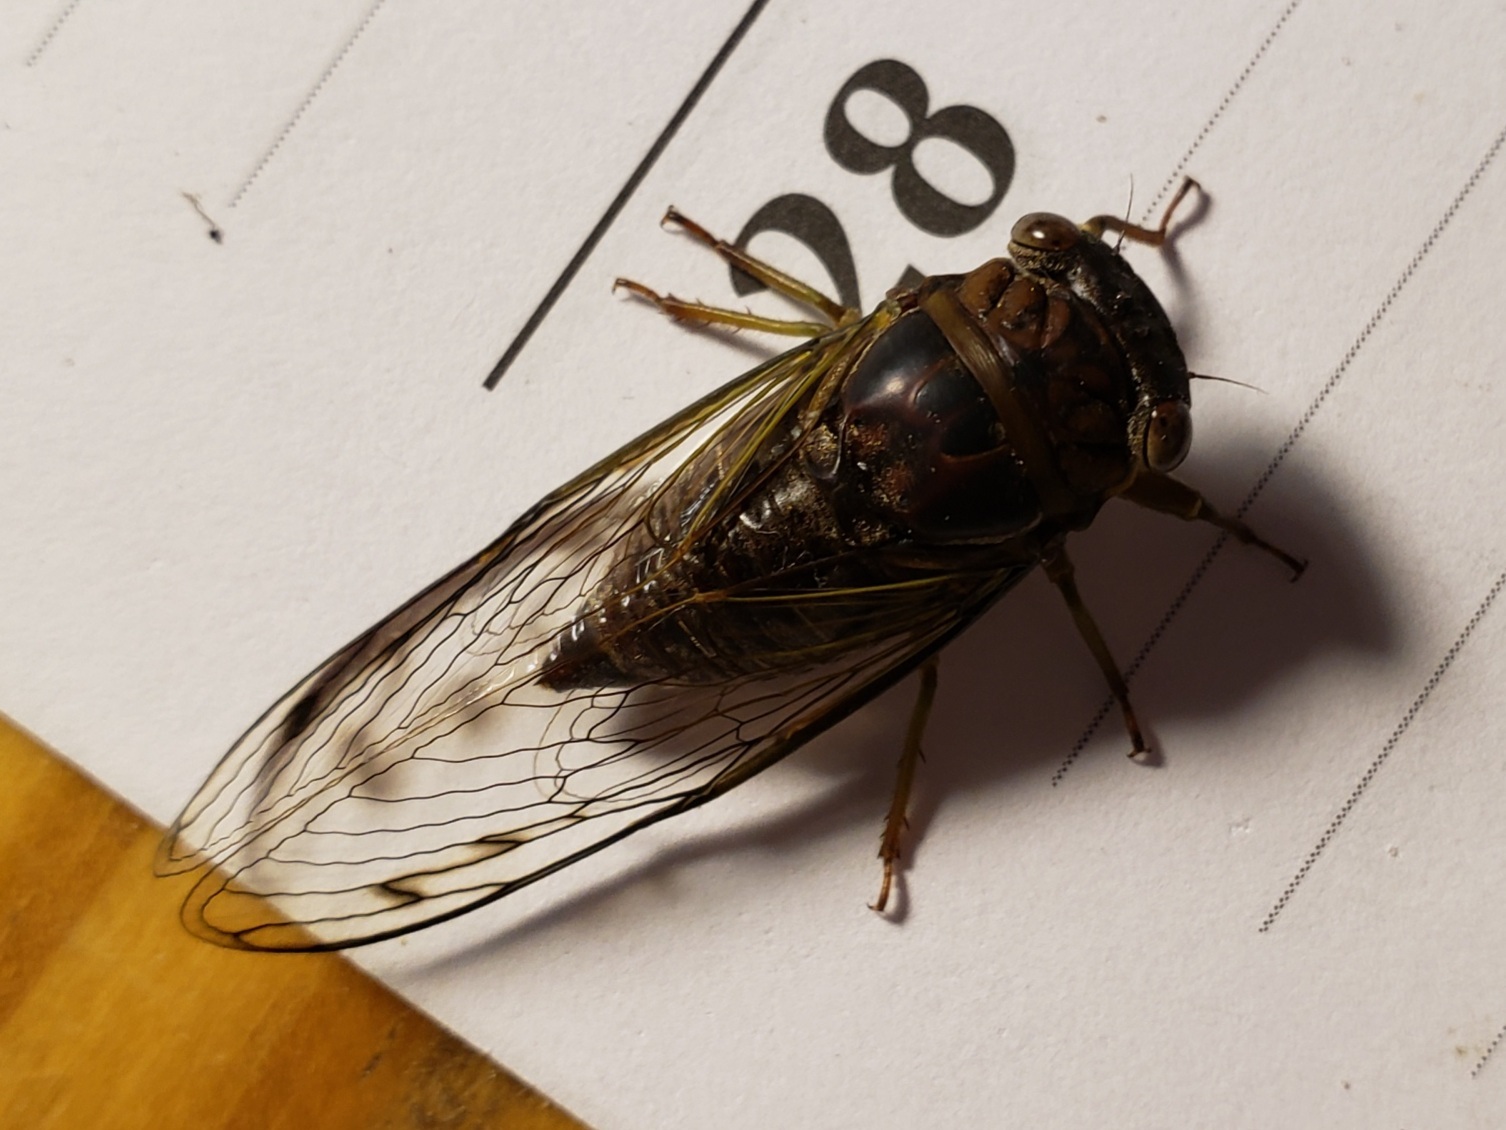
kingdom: Animalia
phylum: Arthropoda
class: Insecta
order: Hemiptera
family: Cicadidae
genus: Diceroprocta
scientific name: Diceroprocta olympusa
